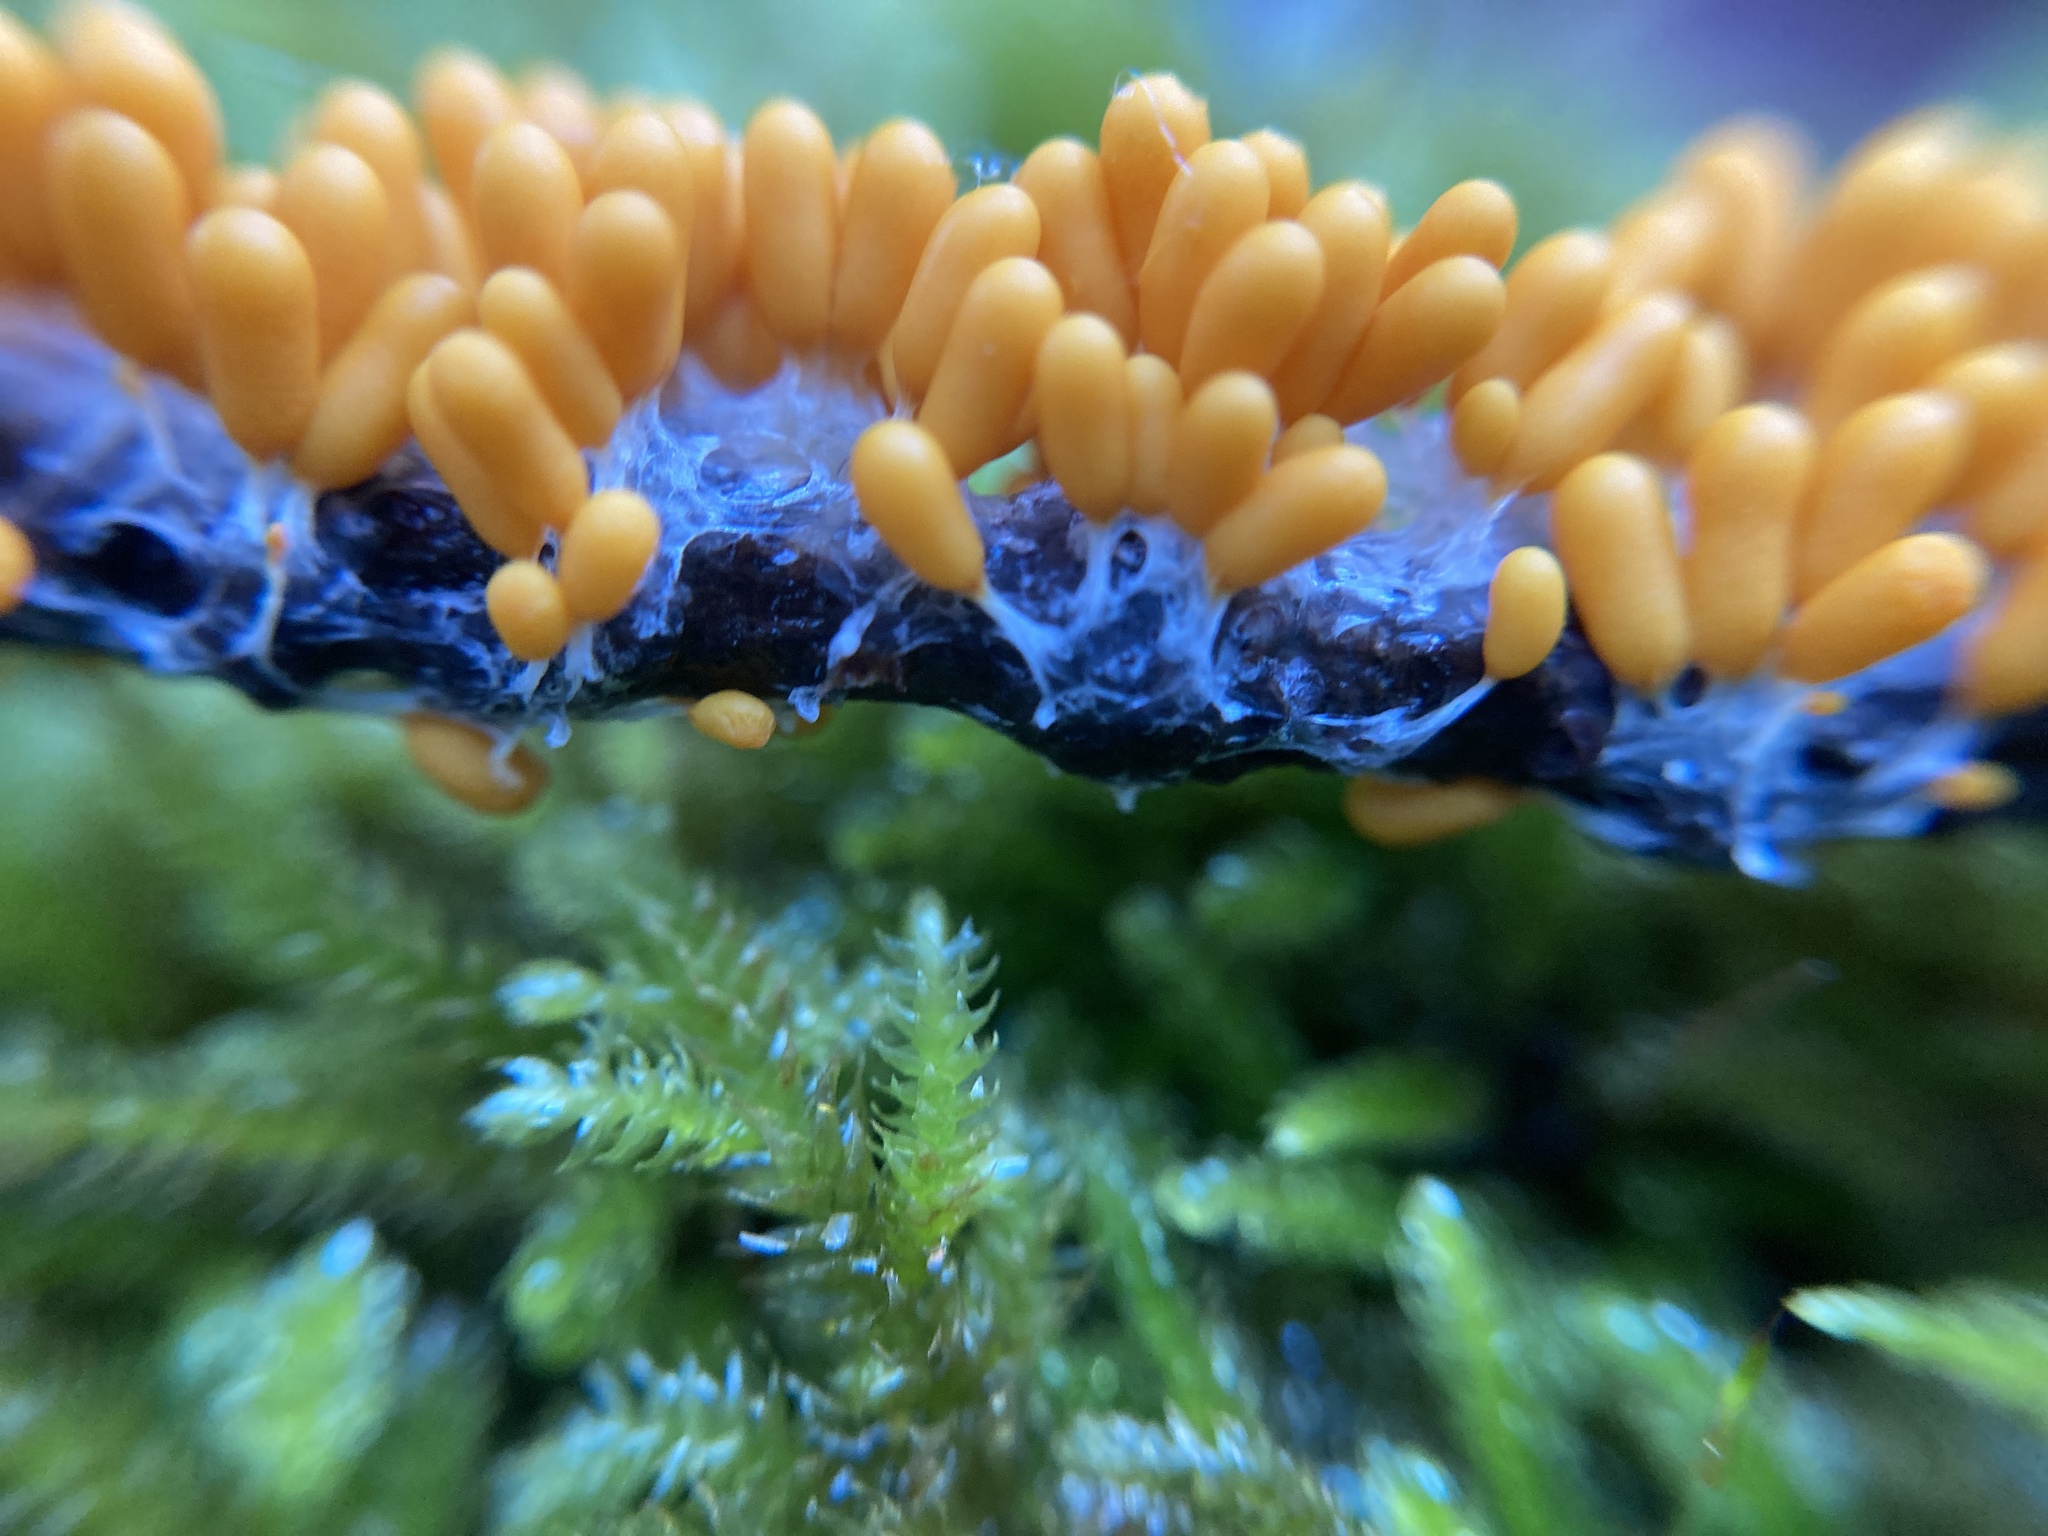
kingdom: Protozoa
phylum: Mycetozoa
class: Myxomycetes
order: Physarales
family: Physaraceae
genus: Leocarpus
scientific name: Leocarpus fragilis
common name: Insect-egg slime
